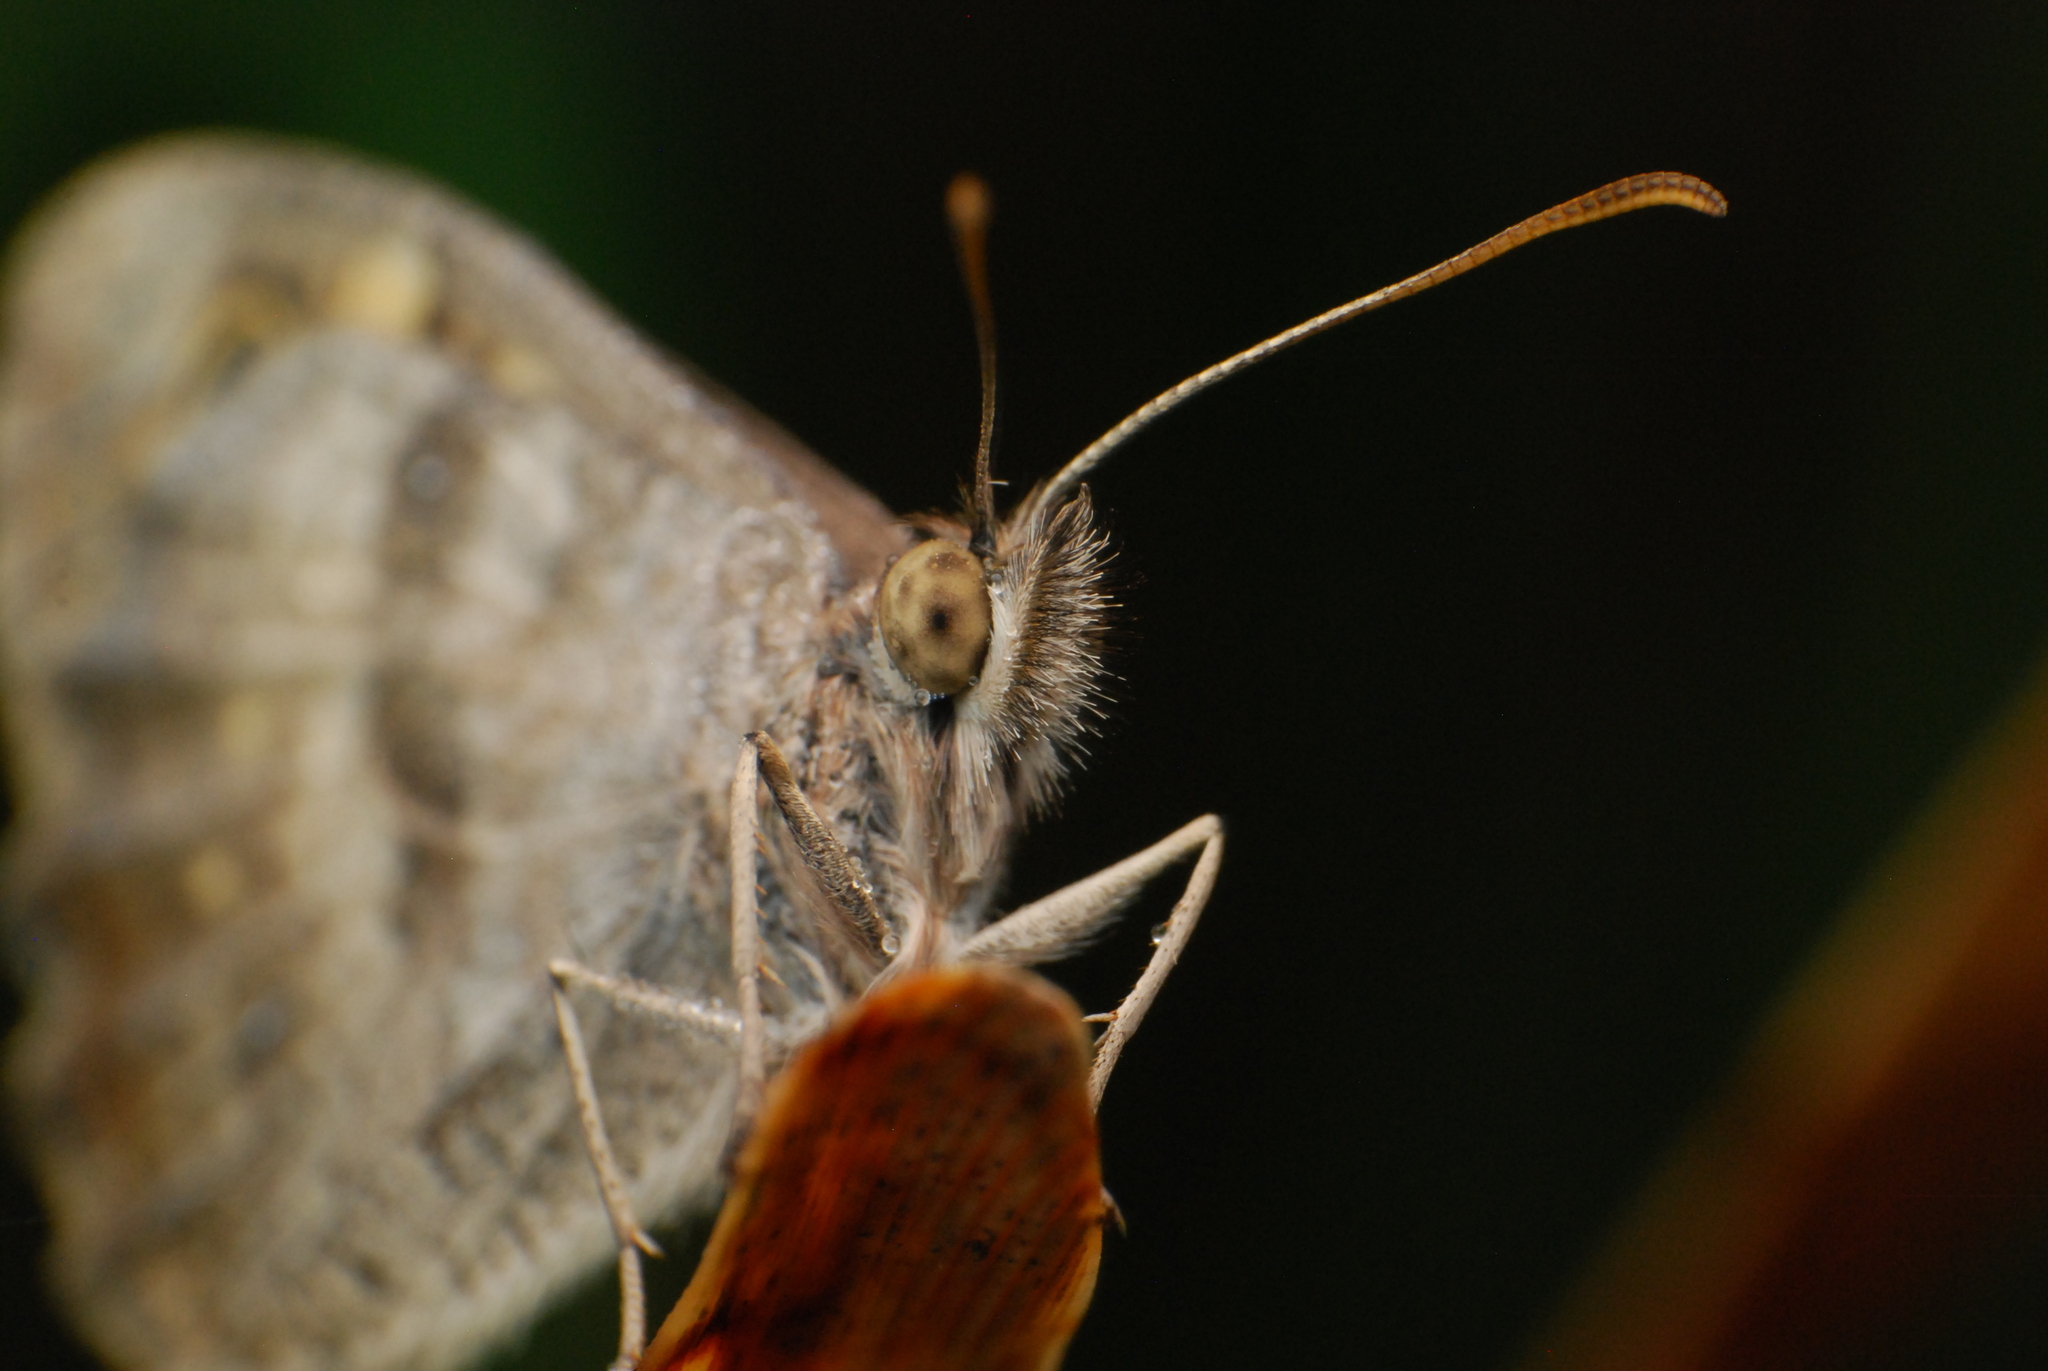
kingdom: Animalia
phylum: Arthropoda
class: Insecta
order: Lepidoptera
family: Nymphalidae
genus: Geitoneura
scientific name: Geitoneura klugii
